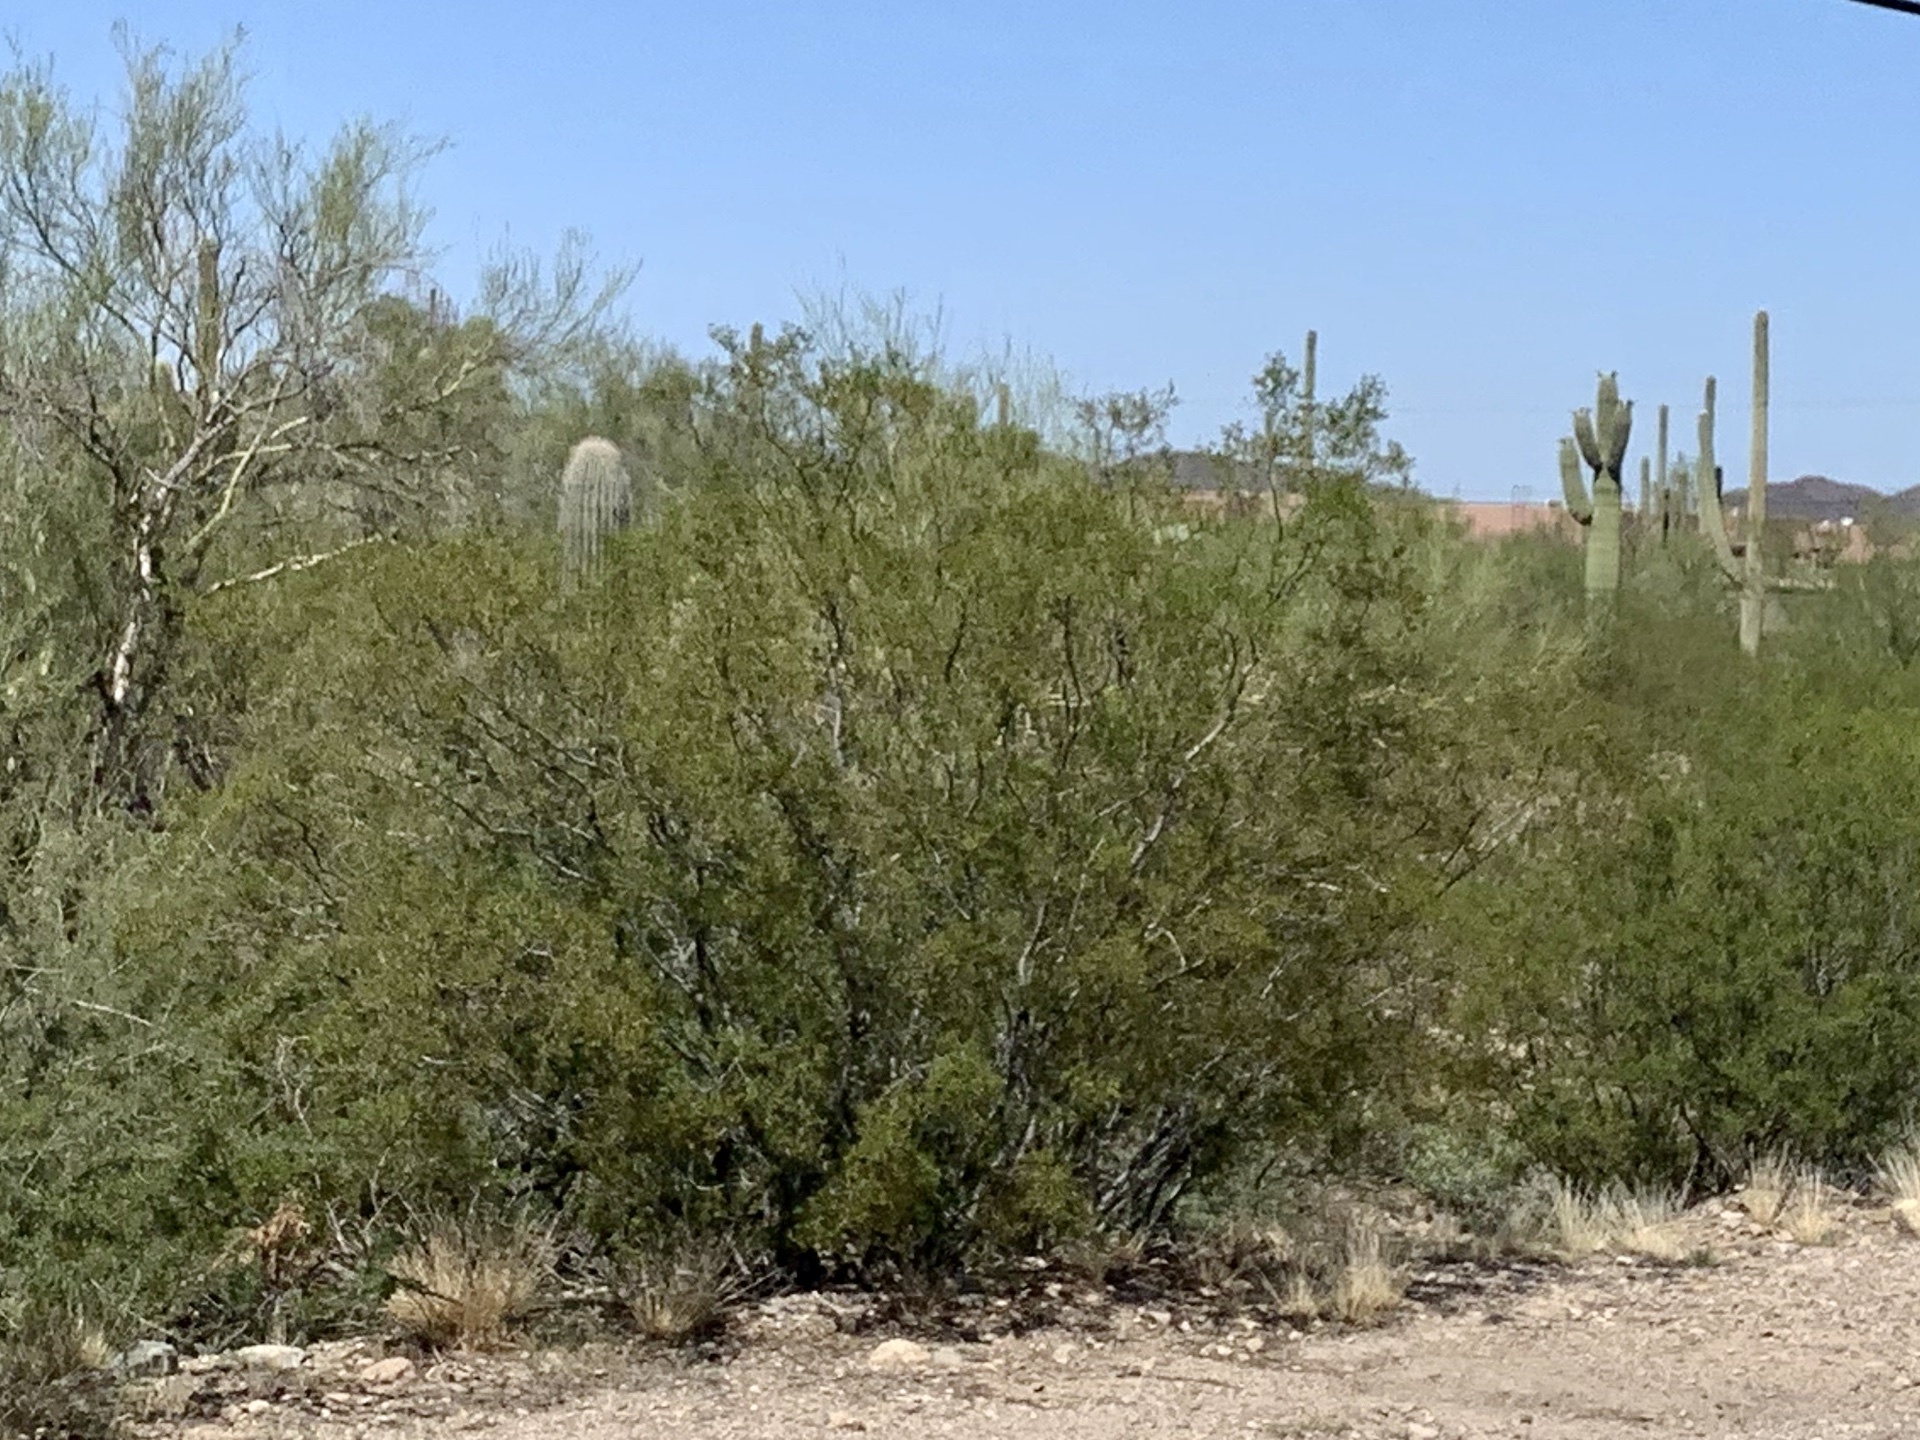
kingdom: Plantae
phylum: Tracheophyta
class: Magnoliopsida
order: Zygophyllales
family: Zygophyllaceae
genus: Larrea
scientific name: Larrea tridentata
